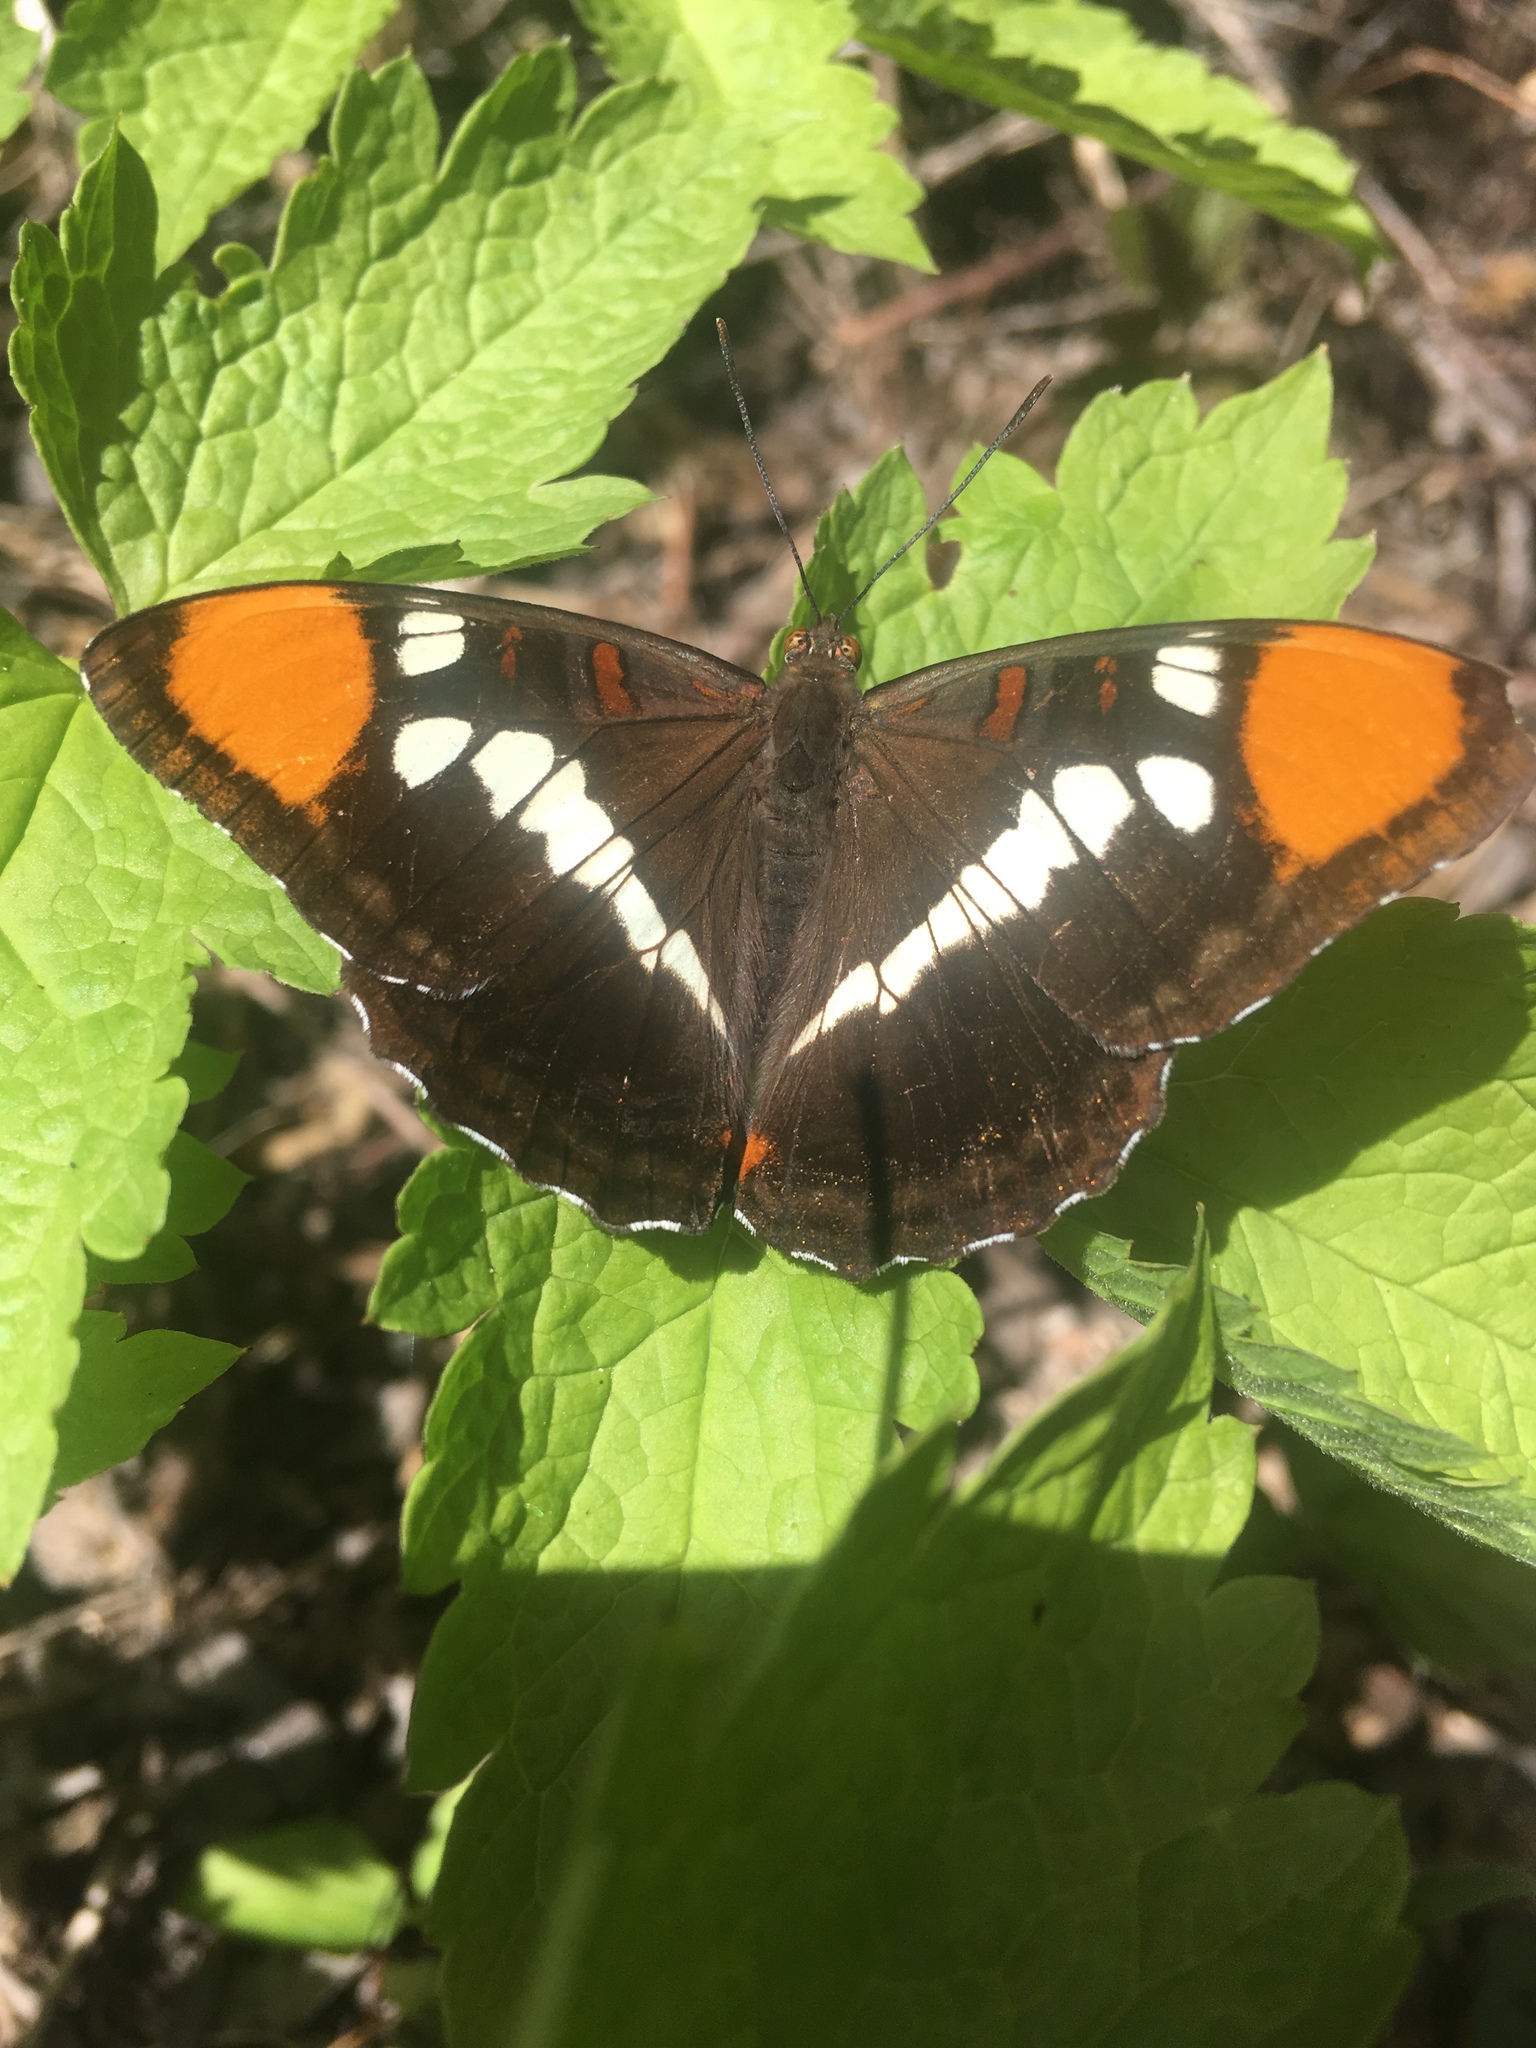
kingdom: Animalia
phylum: Arthropoda
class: Insecta
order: Lepidoptera
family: Nymphalidae
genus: Limenitis
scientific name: Limenitis bredowii
